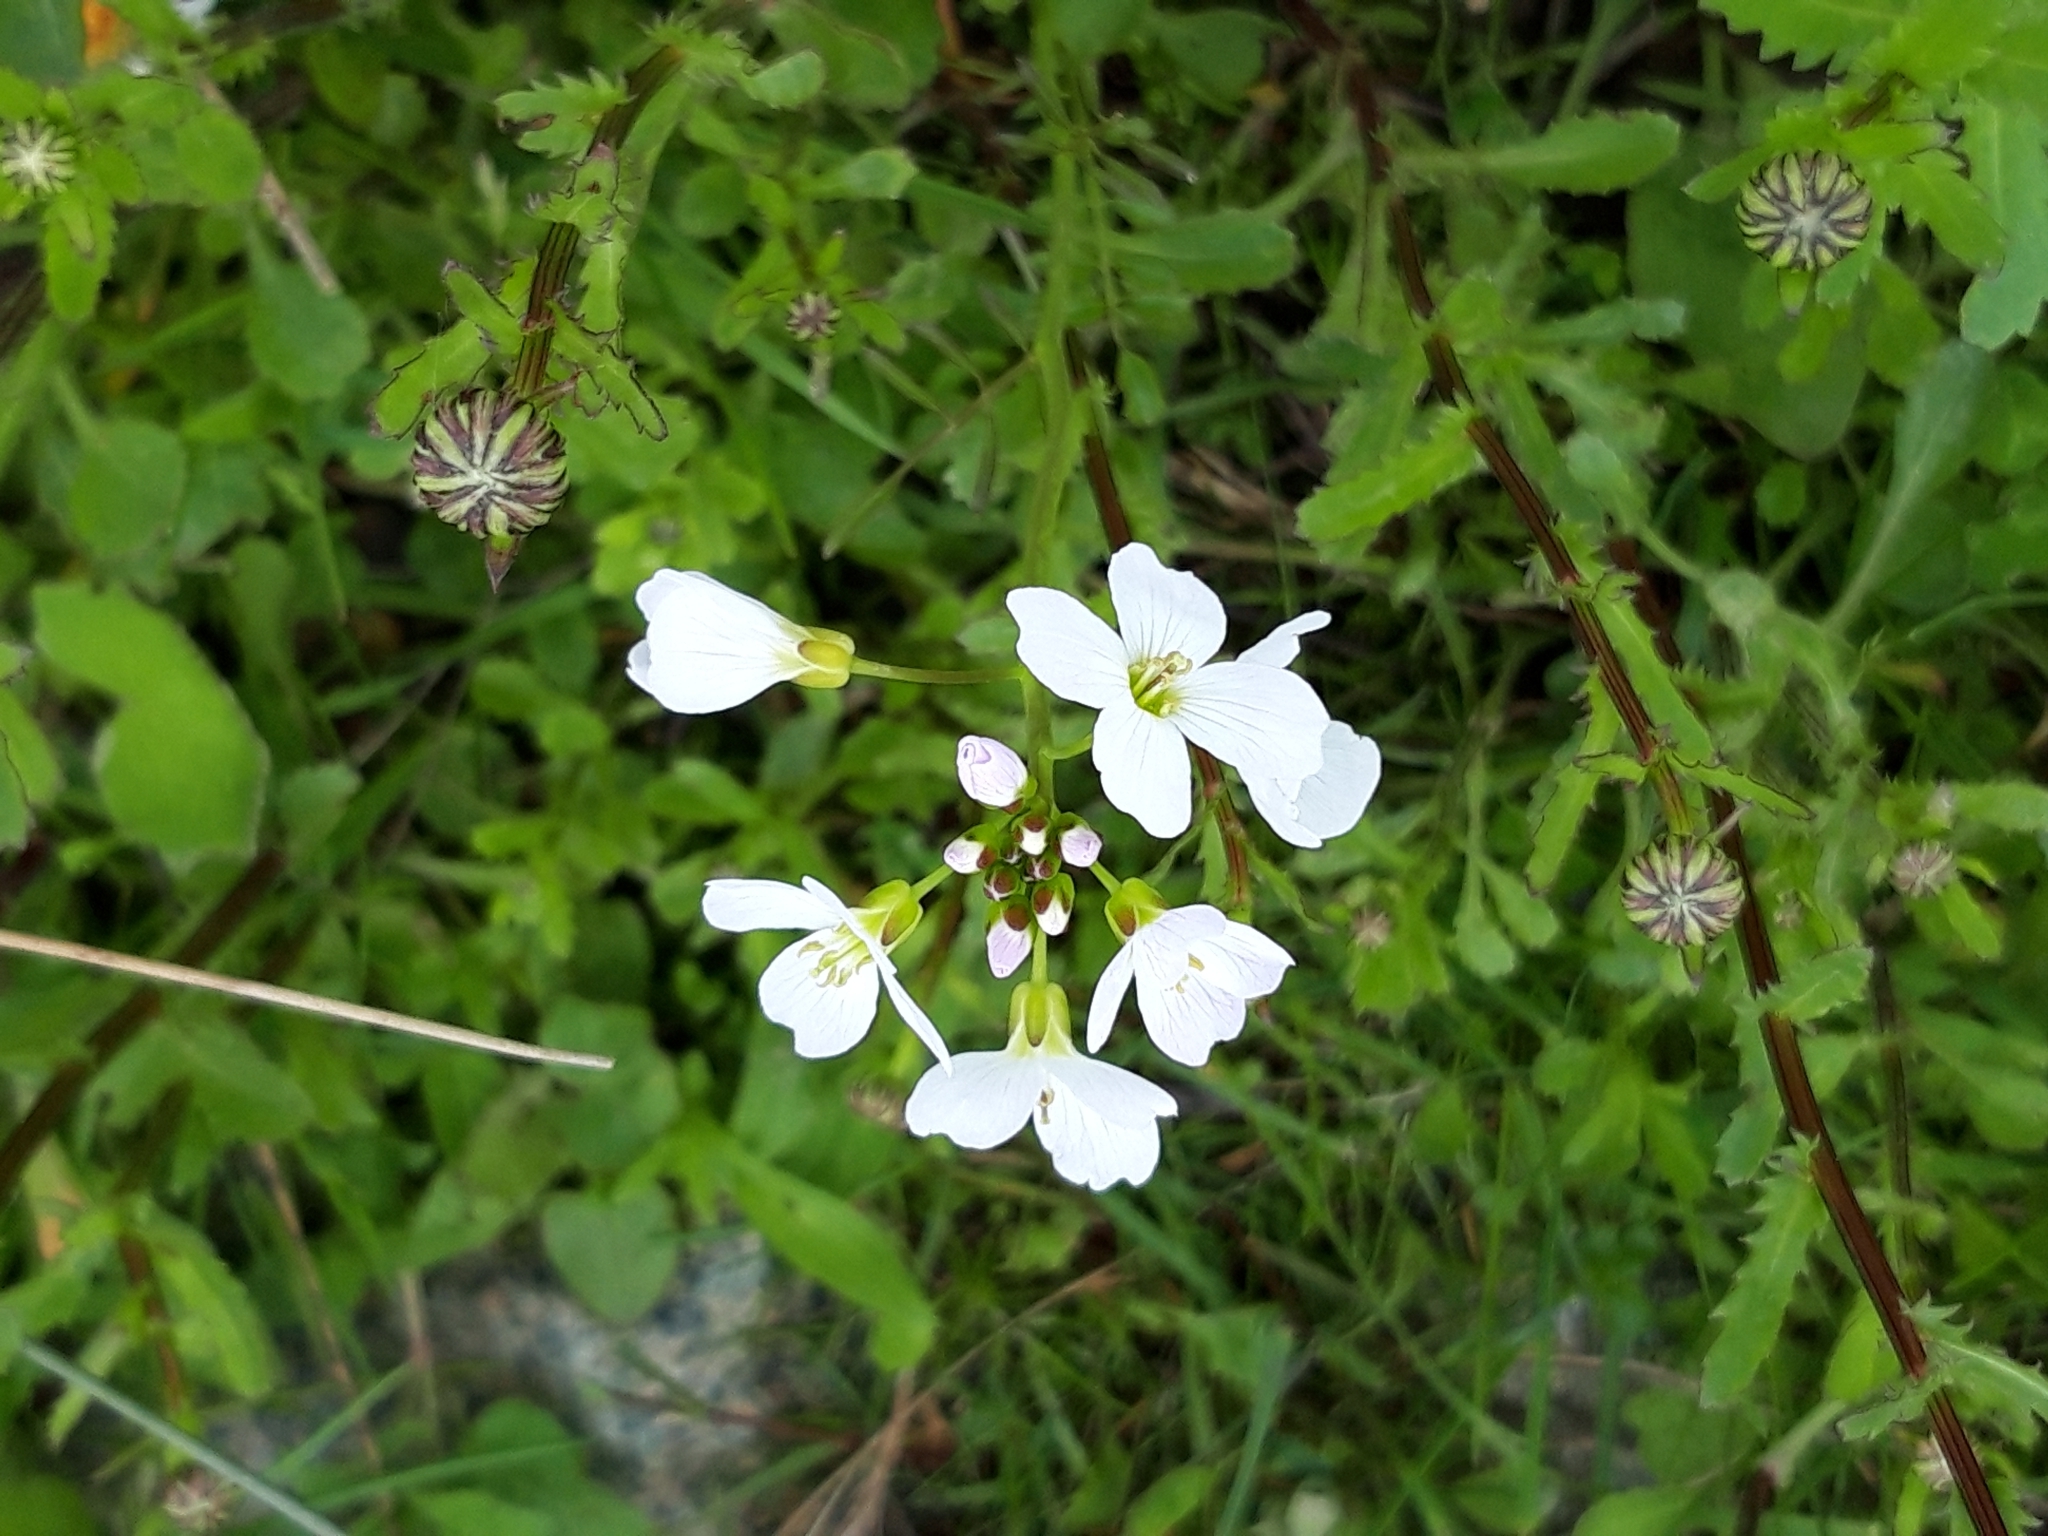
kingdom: Plantae
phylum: Tracheophyta
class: Magnoliopsida
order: Brassicales
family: Brassicaceae
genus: Cardamine
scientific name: Cardamine pratensis
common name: Cuckoo flower
